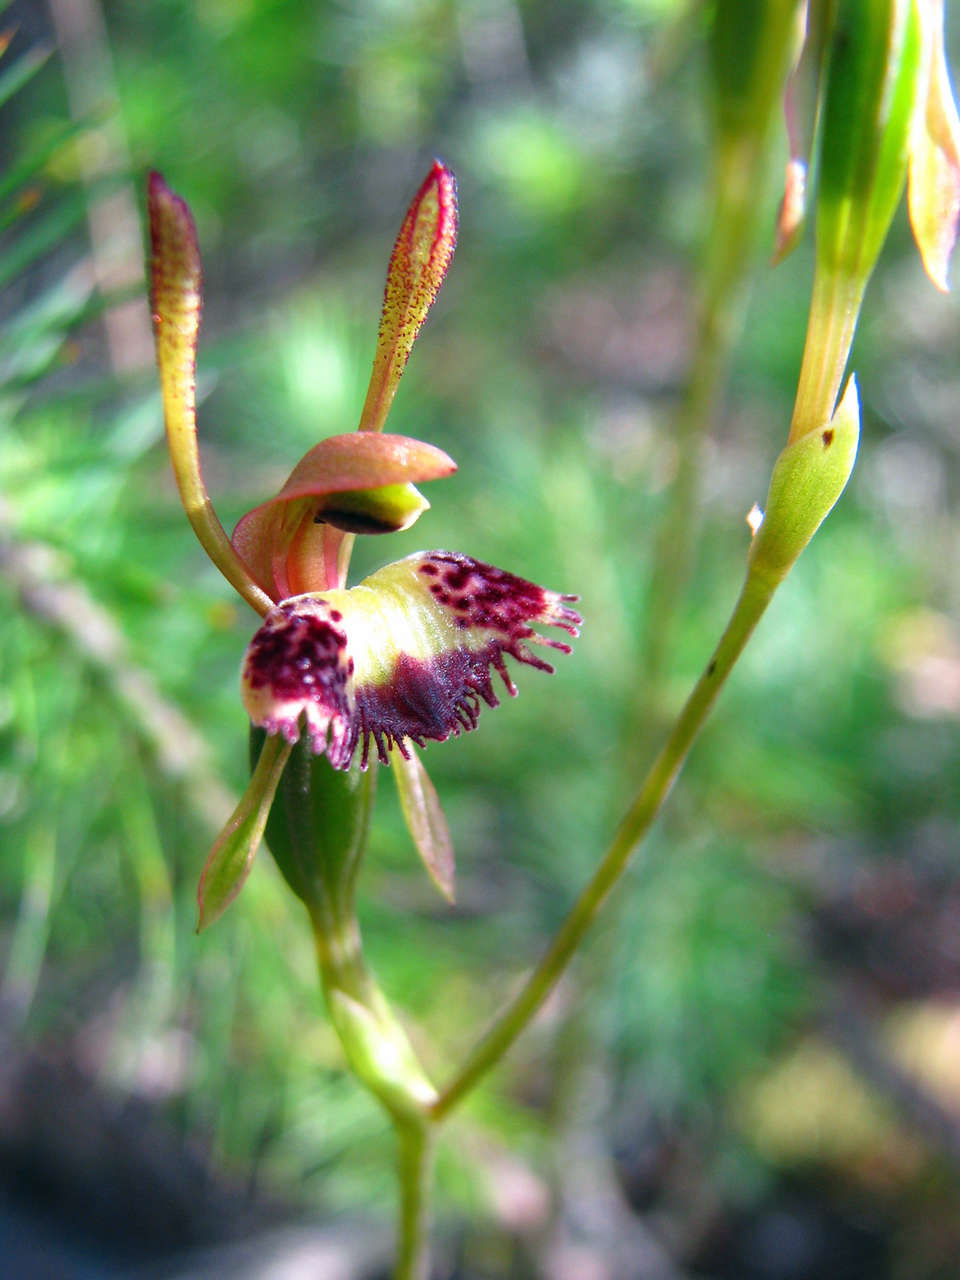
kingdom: Plantae
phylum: Tracheophyta
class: Liliopsida
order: Asparagales
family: Orchidaceae
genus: Leporella
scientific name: Leporella fimbriata
